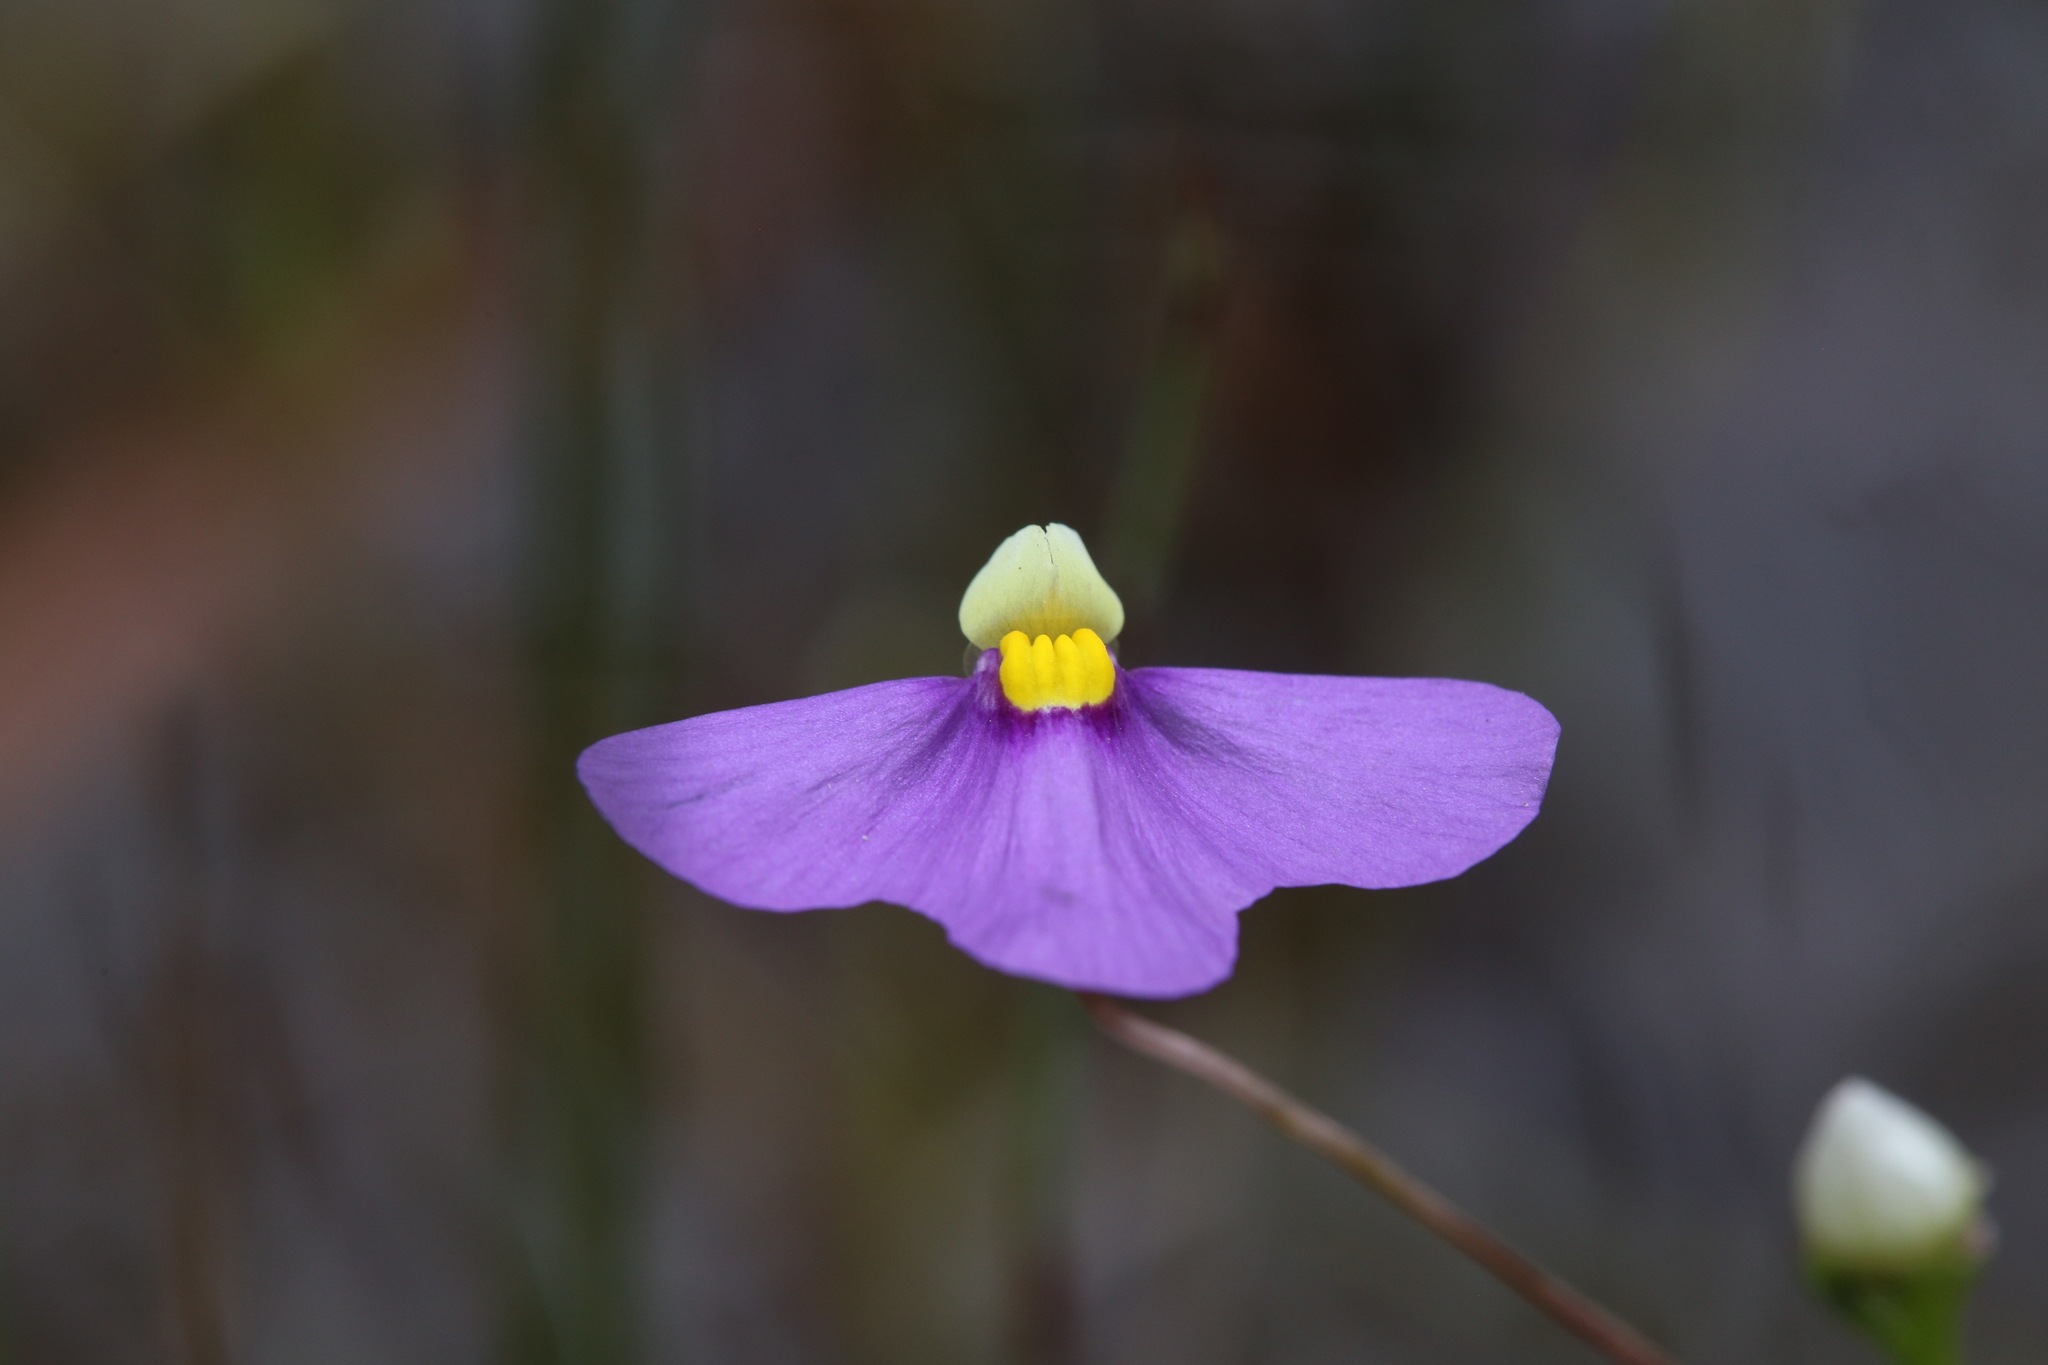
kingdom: Plantae
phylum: Tracheophyta
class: Magnoliopsida
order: Lamiales
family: Lentibulariaceae
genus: Utricularia
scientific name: Utricularia benthamii
